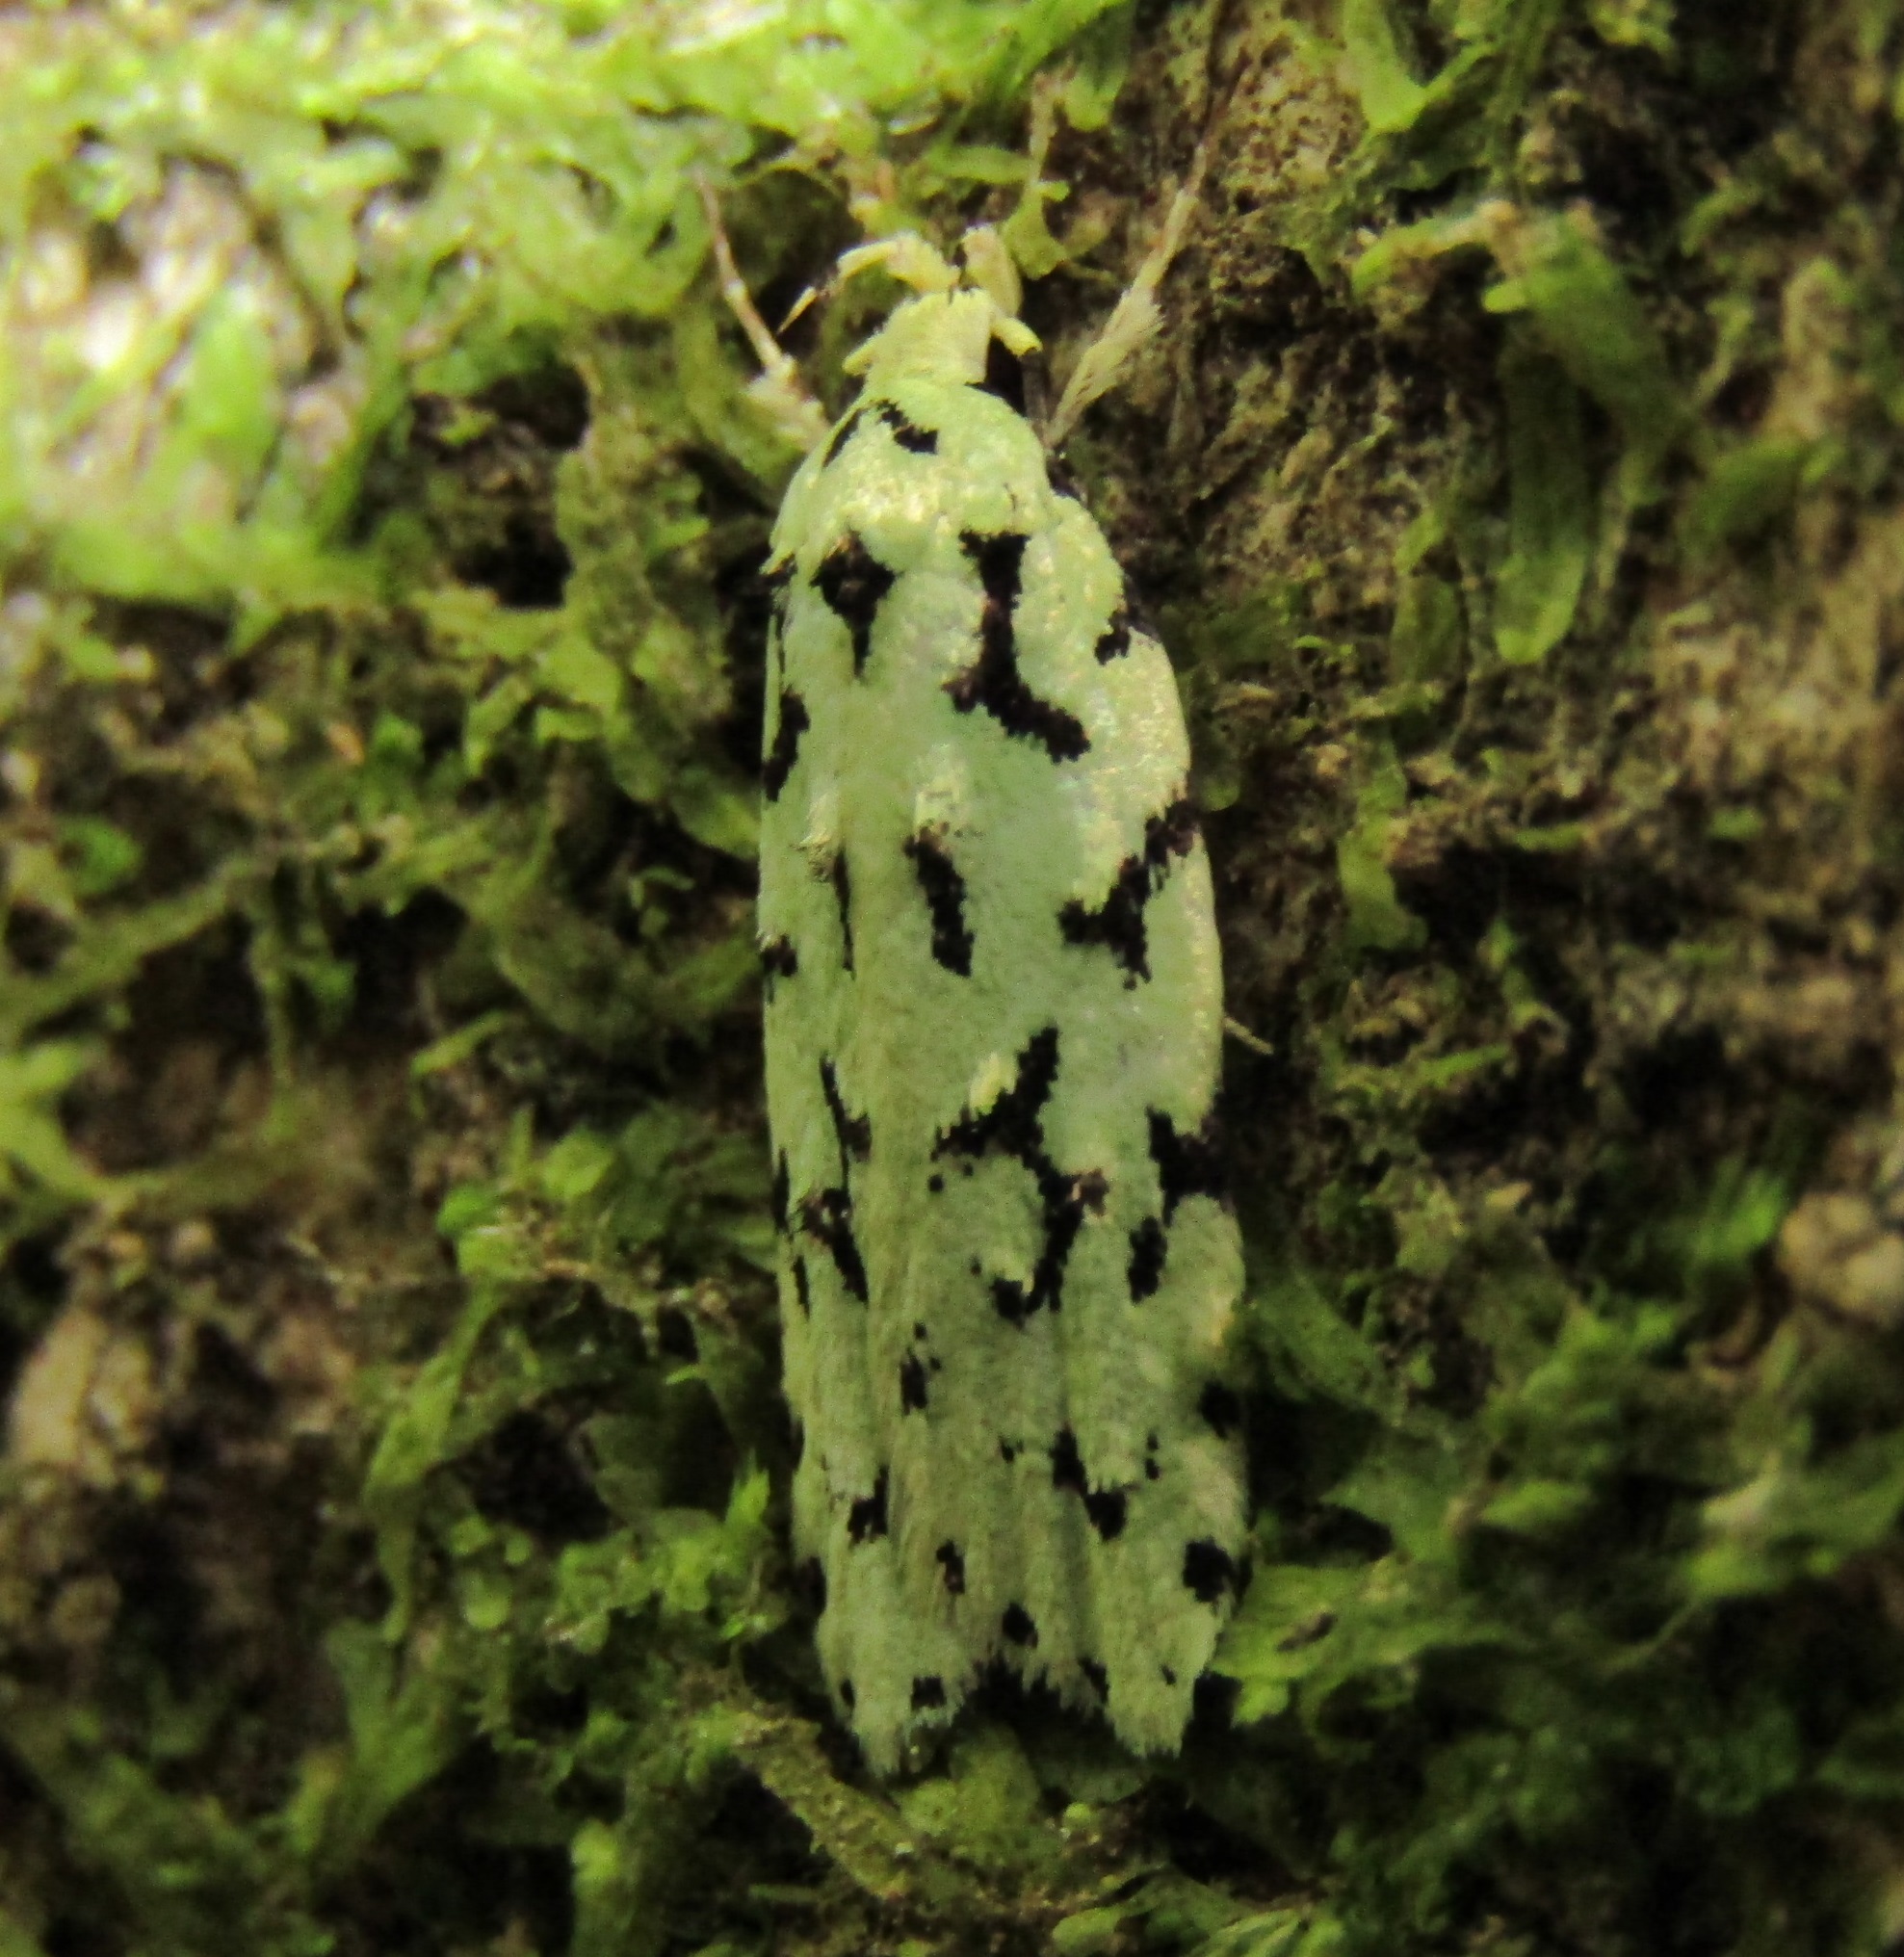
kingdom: Animalia
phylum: Arthropoda
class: Insecta
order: Lepidoptera
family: Oecophoridae
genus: Izatha
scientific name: Izatha huttoni
